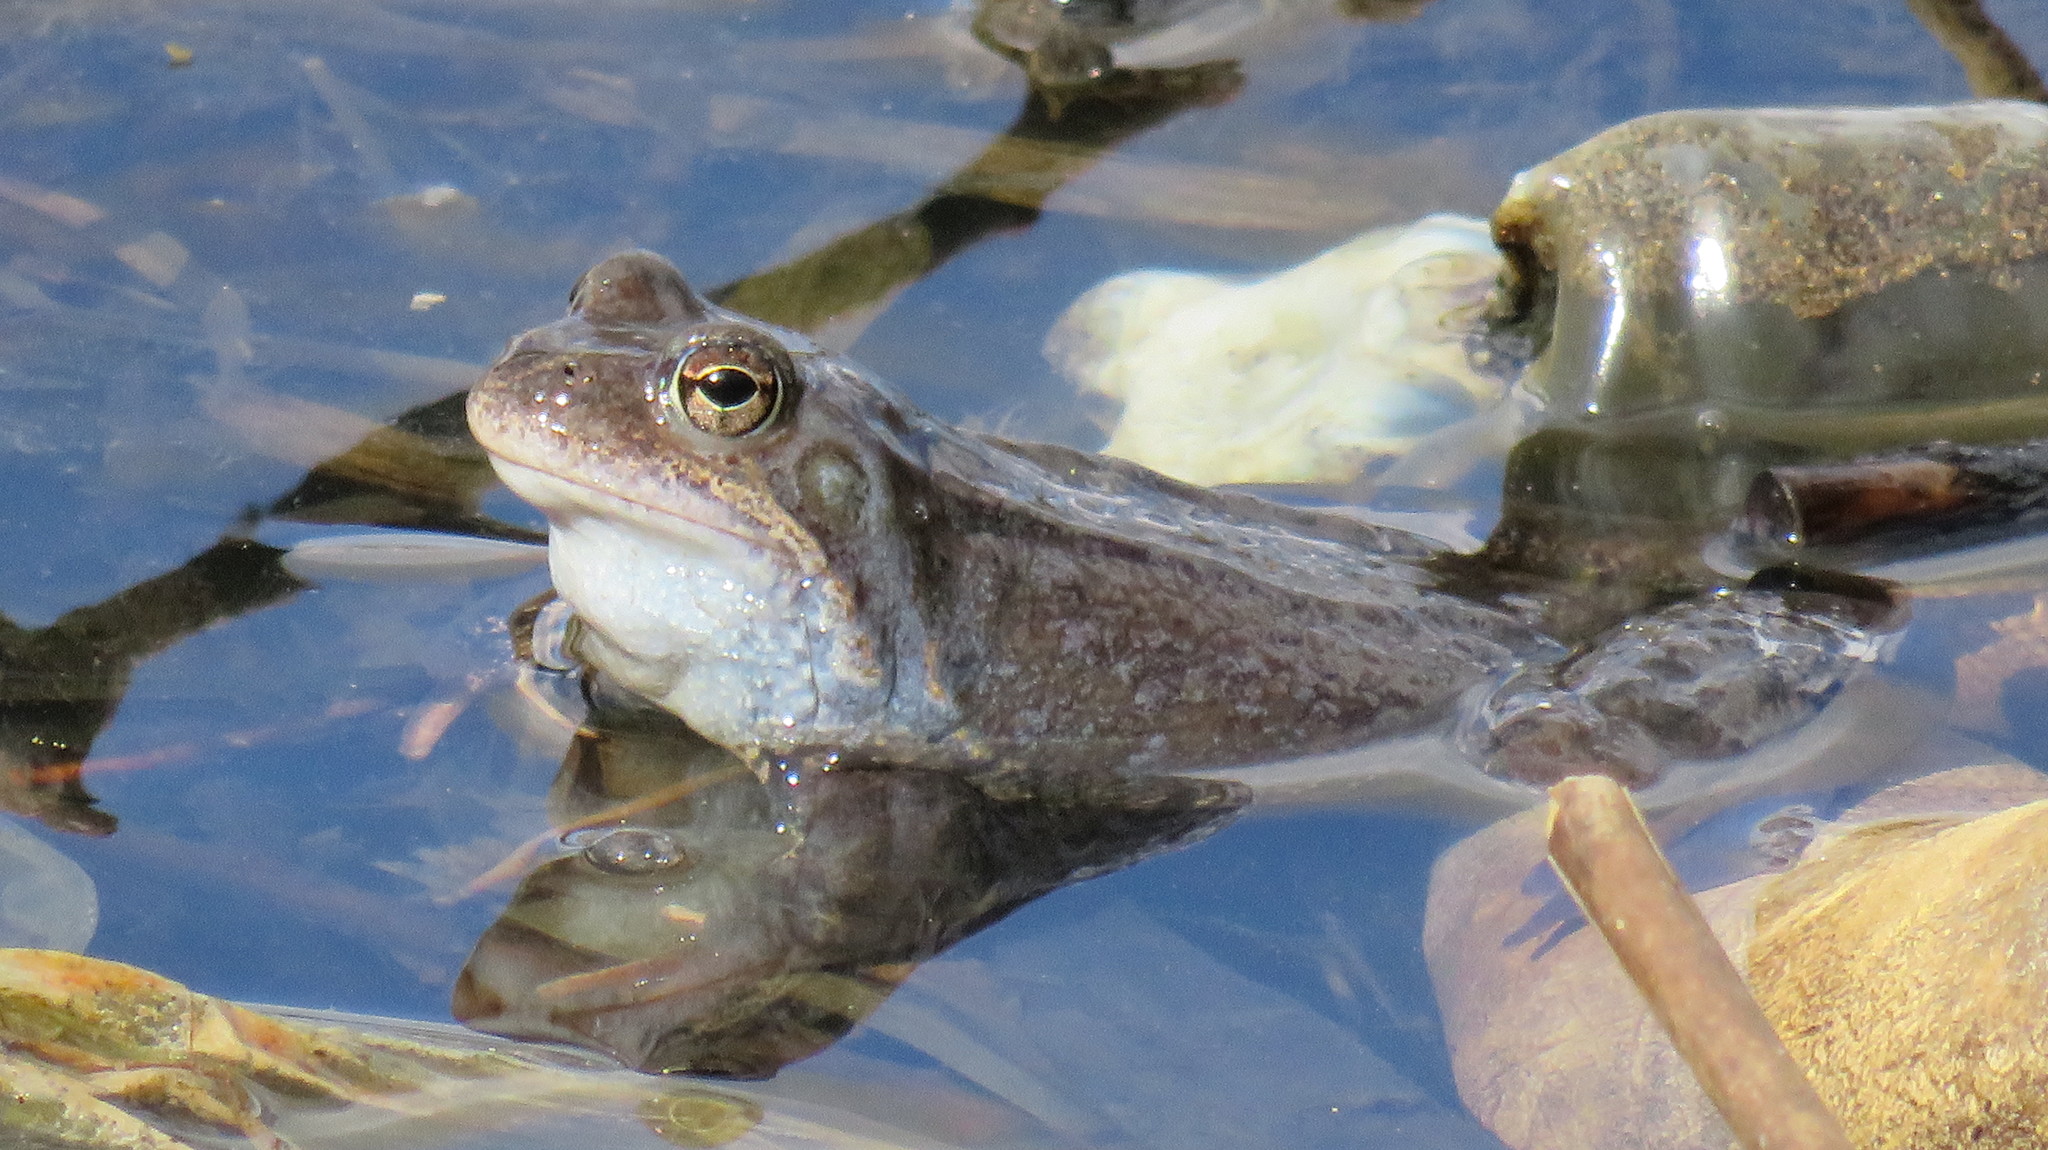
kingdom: Animalia
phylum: Chordata
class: Amphibia
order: Anura
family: Ranidae
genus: Rana
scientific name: Rana temporaria
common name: Common frog
